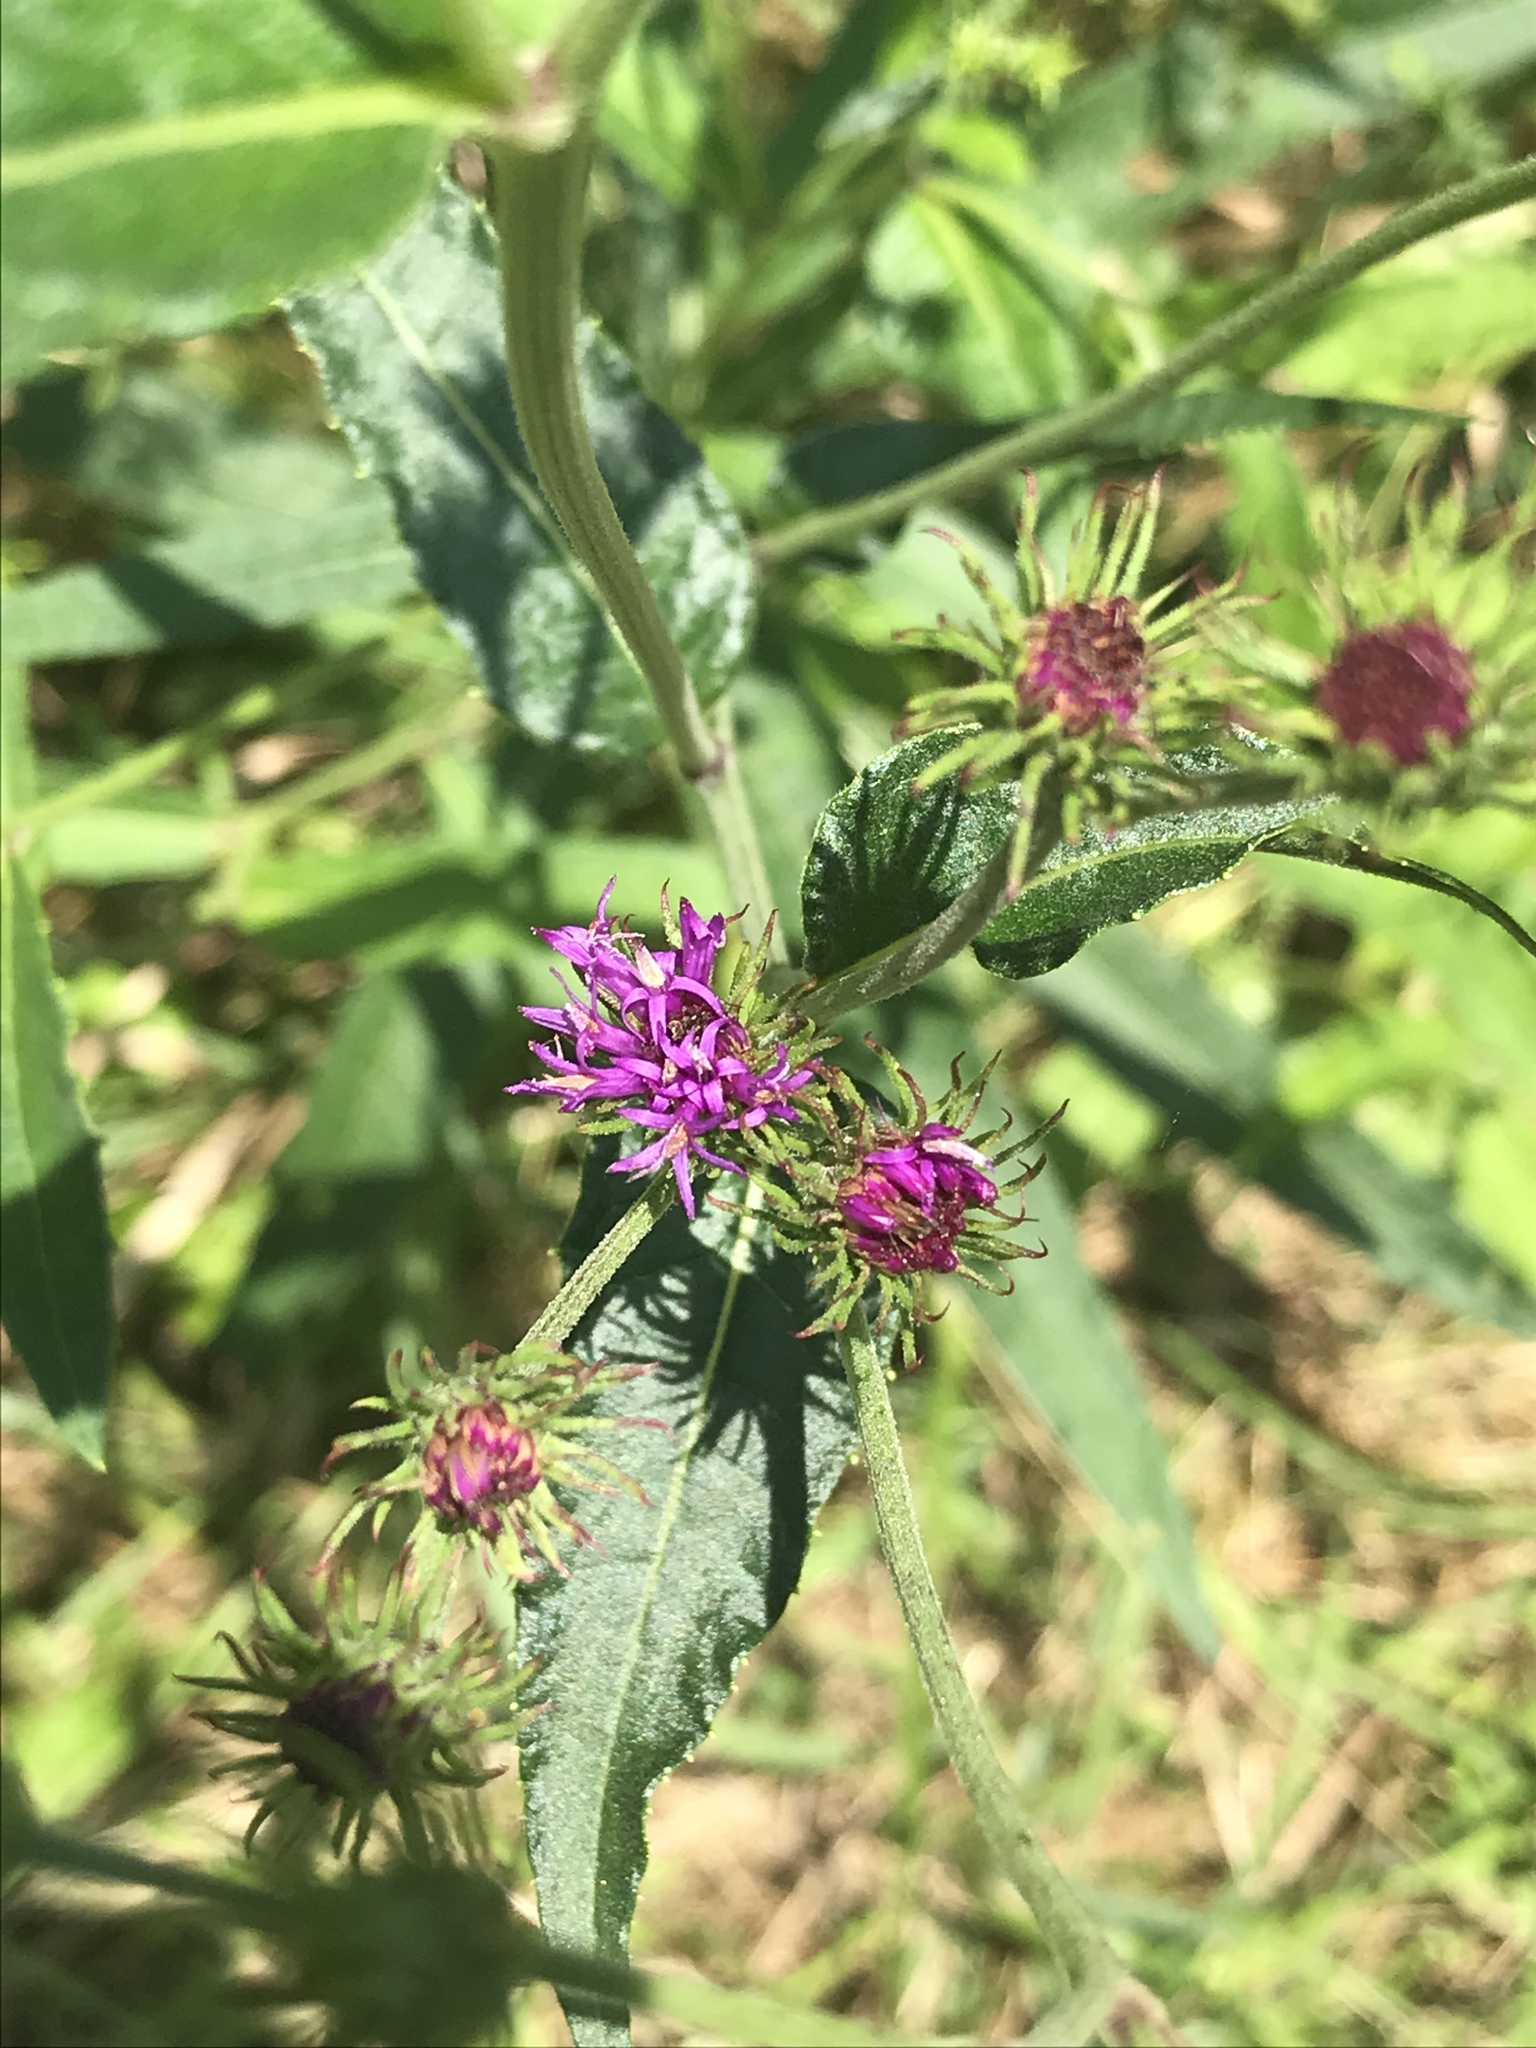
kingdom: Plantae
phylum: Tracheophyta
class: Magnoliopsida
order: Asterales
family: Asteraceae
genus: Vernonia
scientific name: Vernonia noveboracensis
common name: New york ironweed
